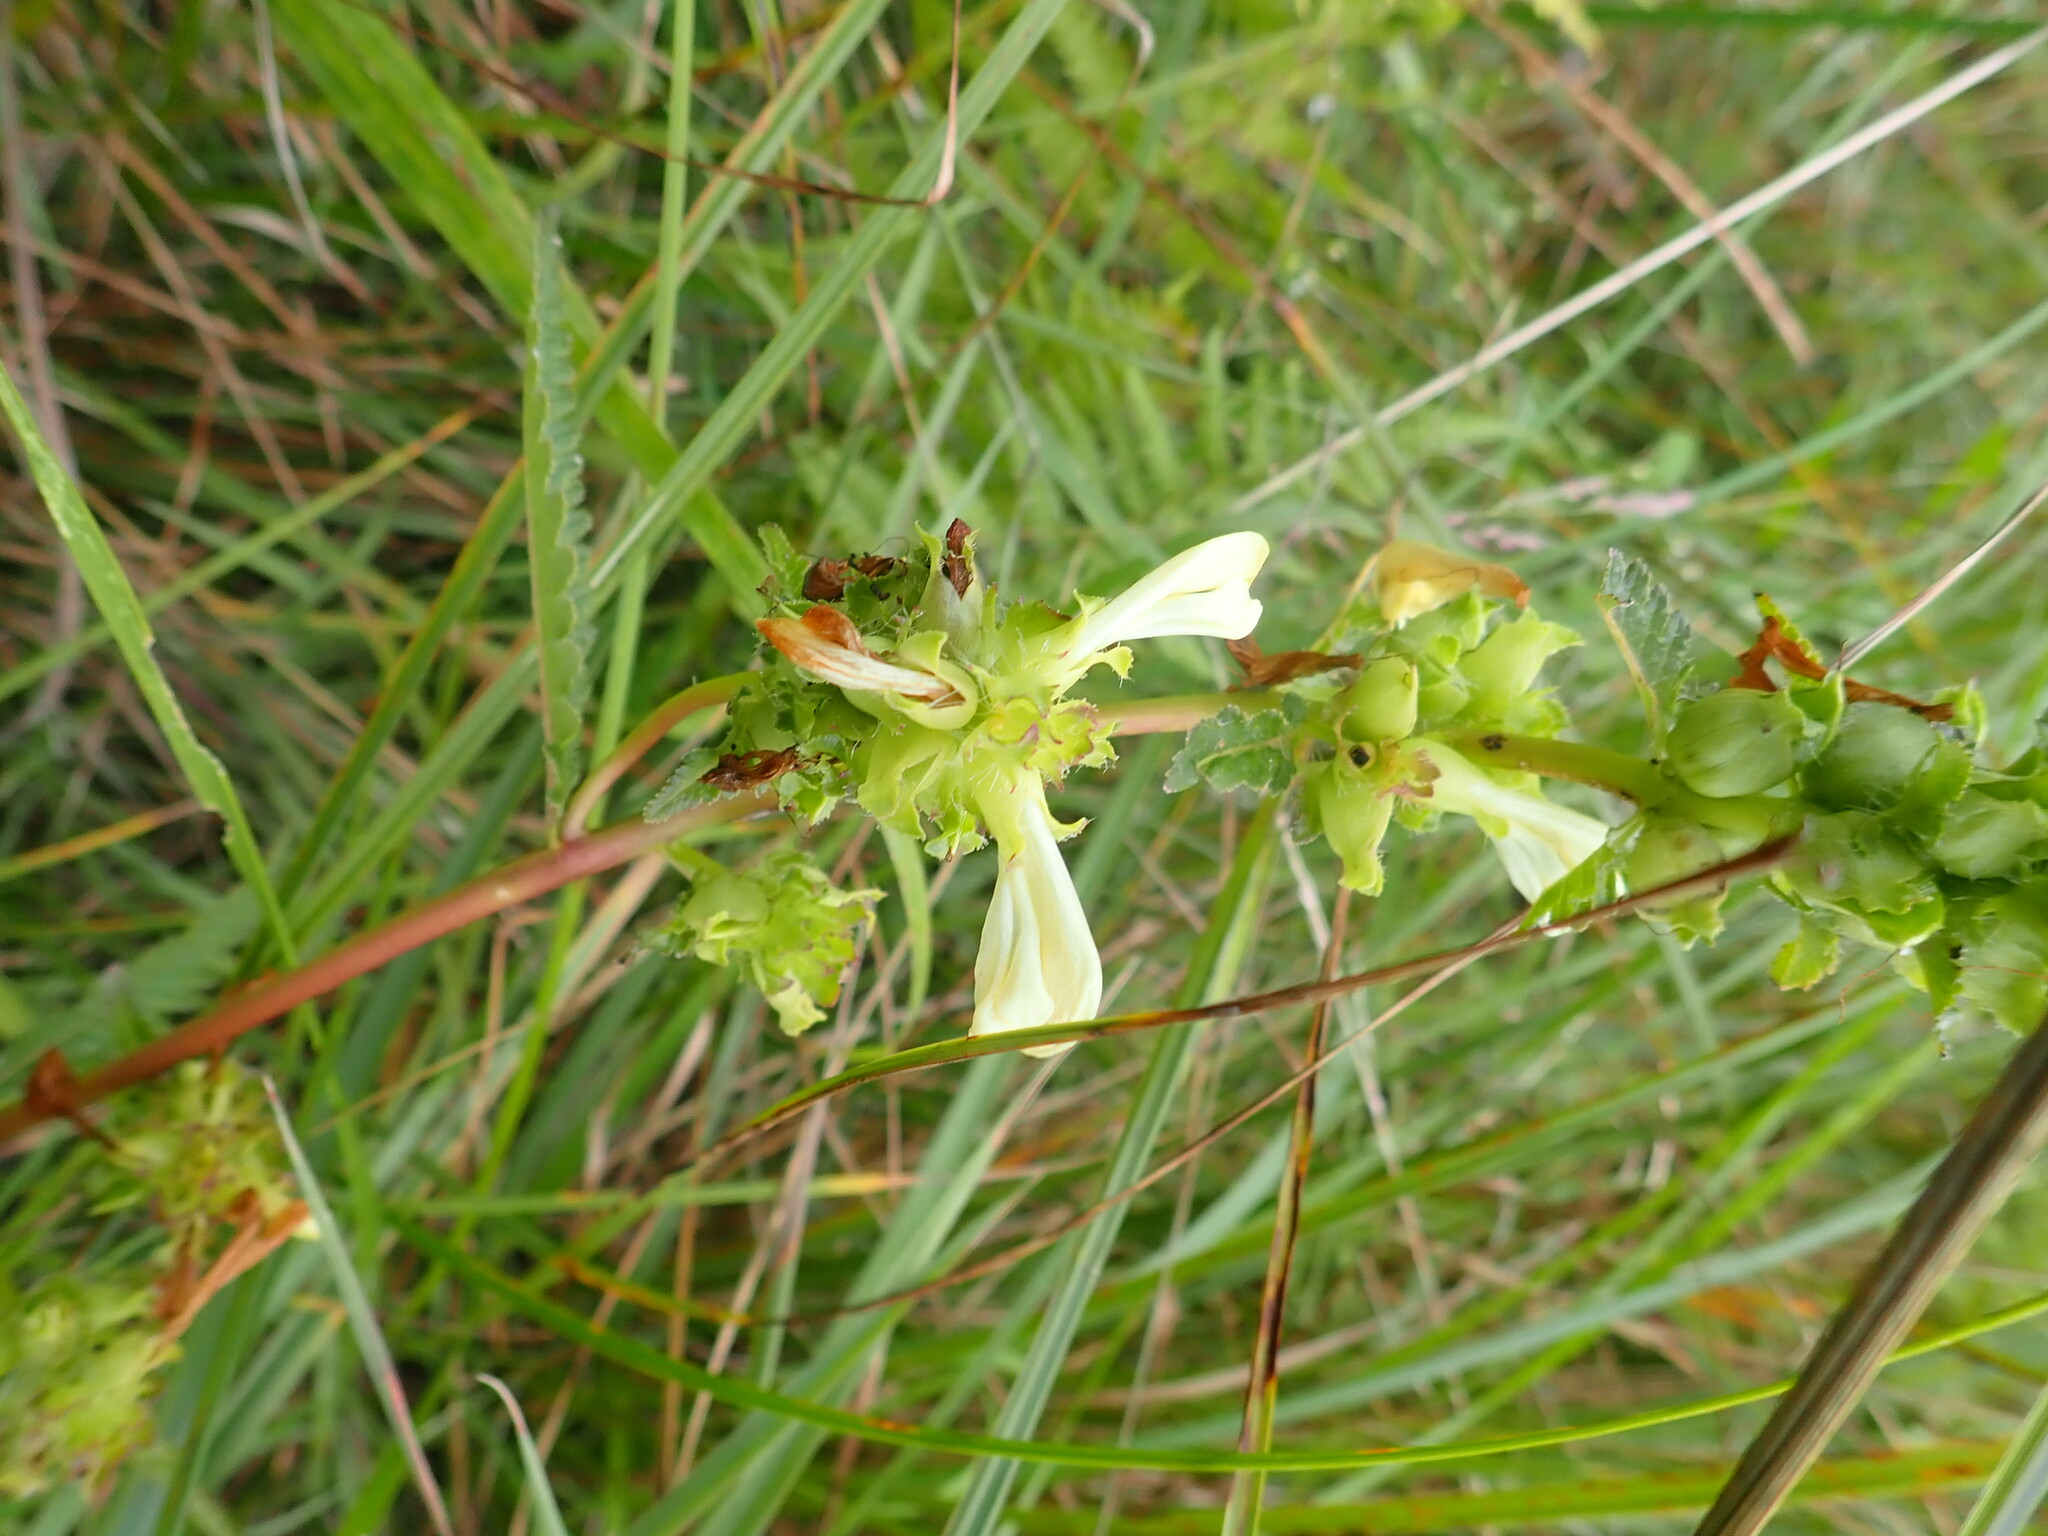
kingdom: Plantae
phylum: Tracheophyta
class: Magnoliopsida
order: Lamiales
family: Orobanchaceae
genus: Pedicularis
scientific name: Pedicularis lanceolata
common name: Swamp lousewort
